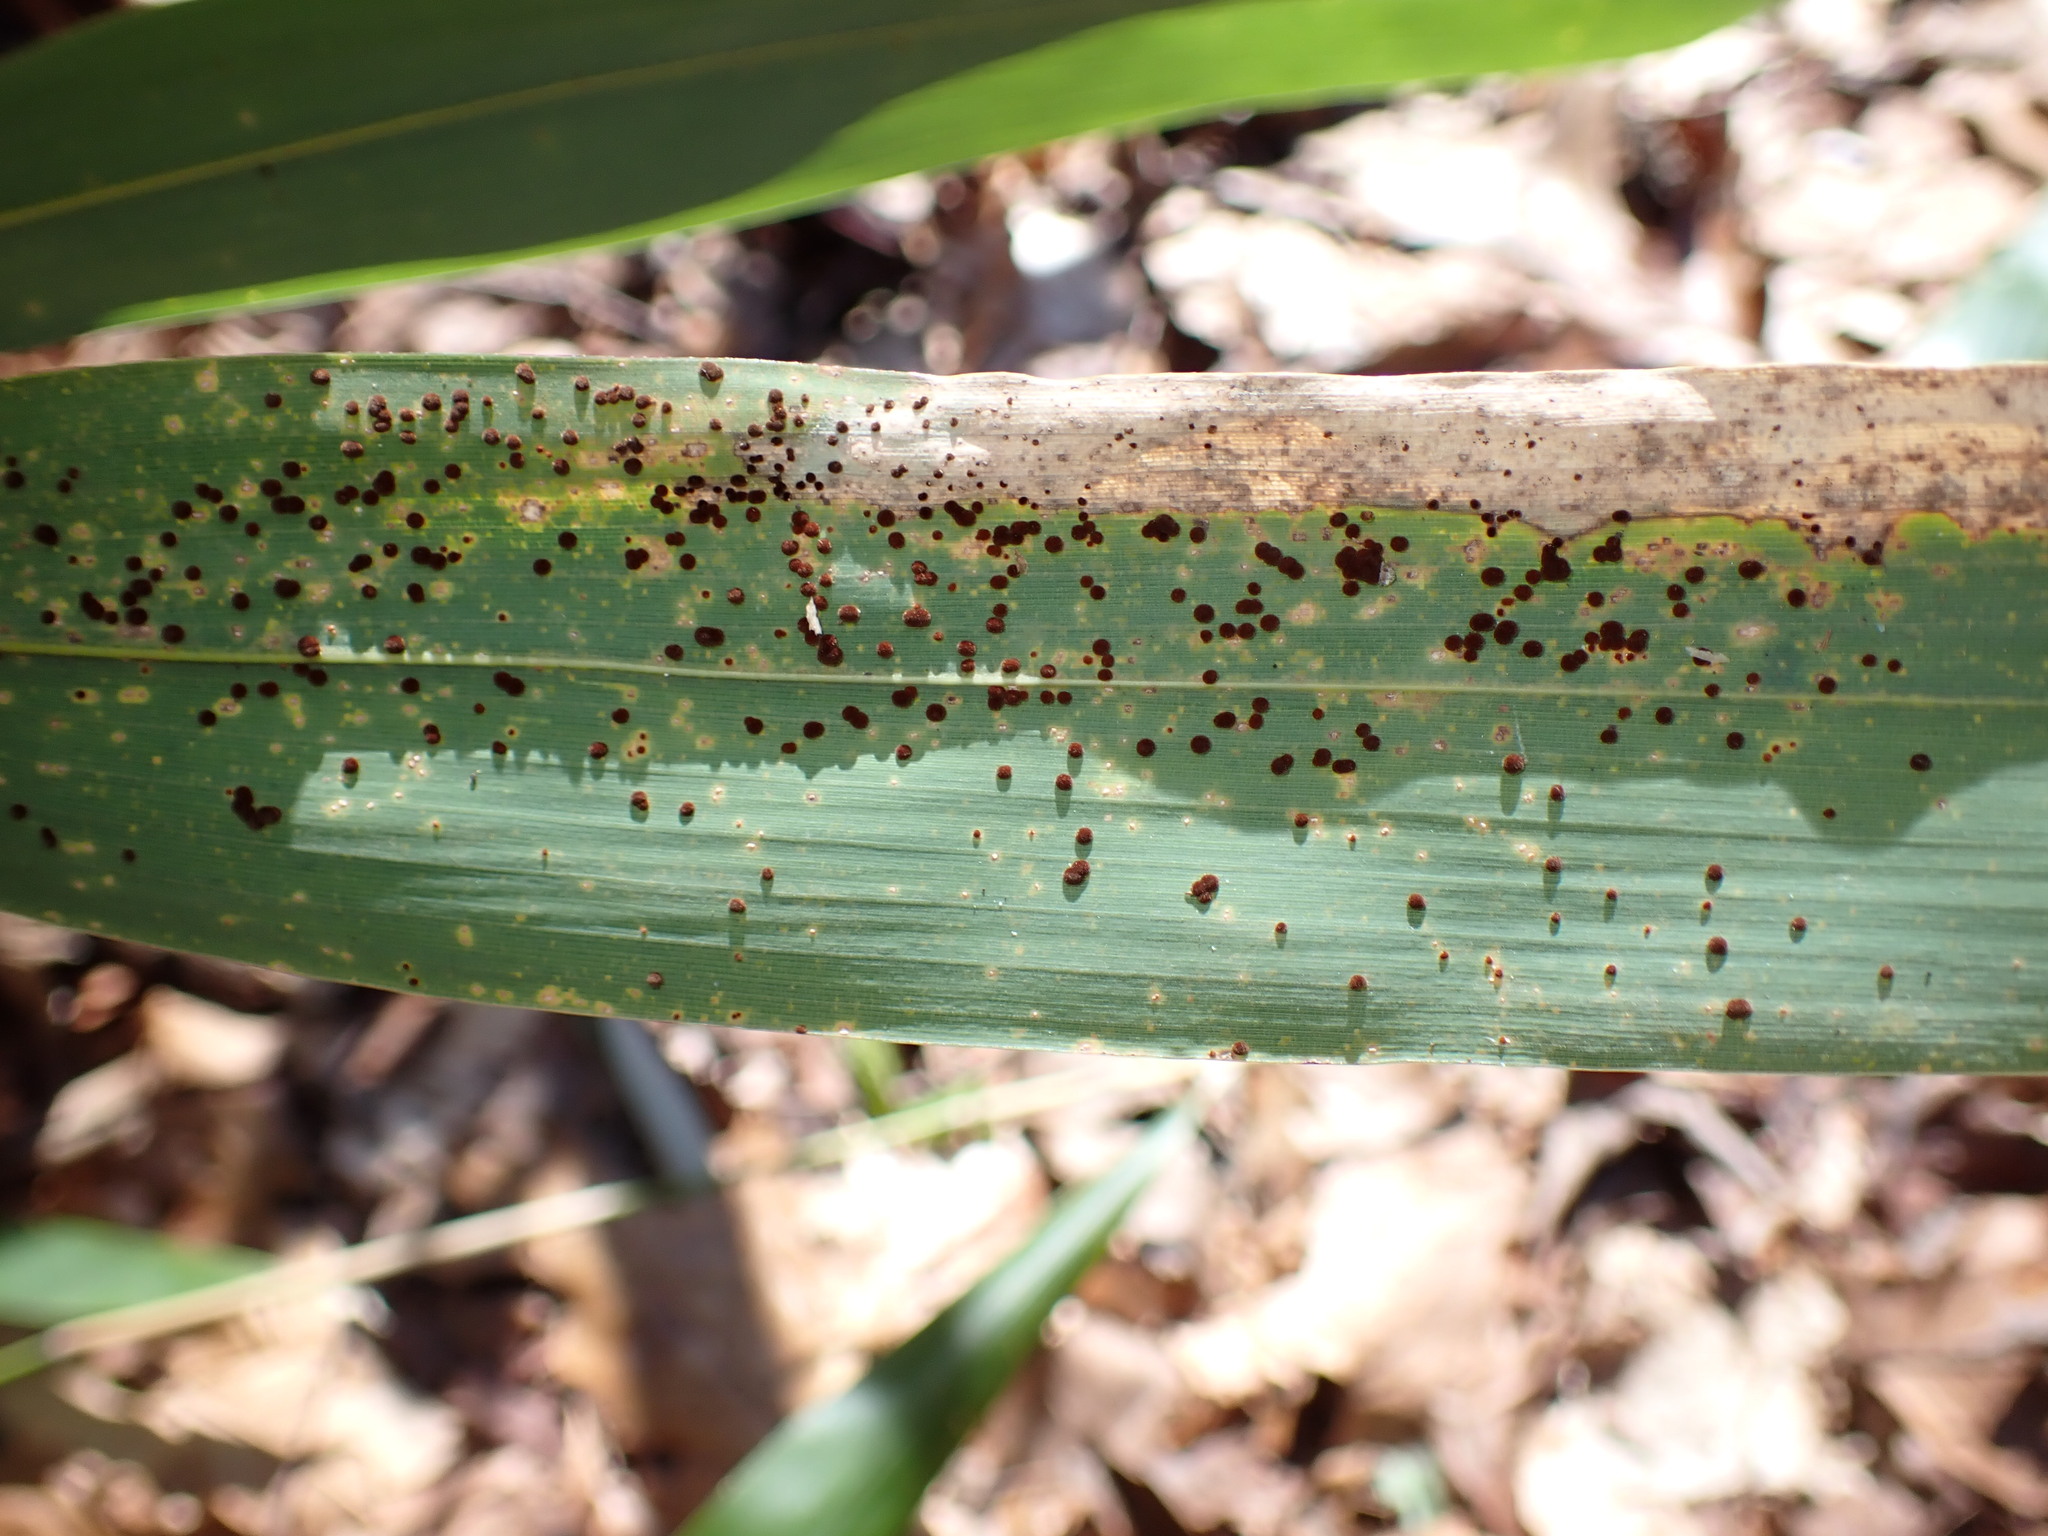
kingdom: Fungi
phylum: Basidiomycota
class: Pucciniomycetes
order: Pucciniales
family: Pucciniaceae
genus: Puccinia
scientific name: Puccinia phyllostachydis
